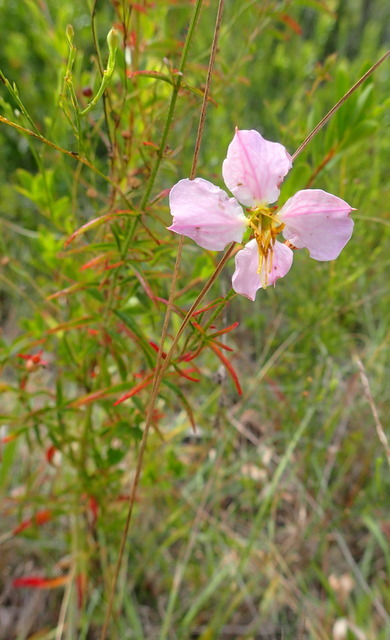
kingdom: Plantae
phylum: Tracheophyta
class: Magnoliopsida
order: Myrtales
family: Melastomataceae
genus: Rhexia
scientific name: Rhexia mariana
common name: Dull meadow-pitcher
